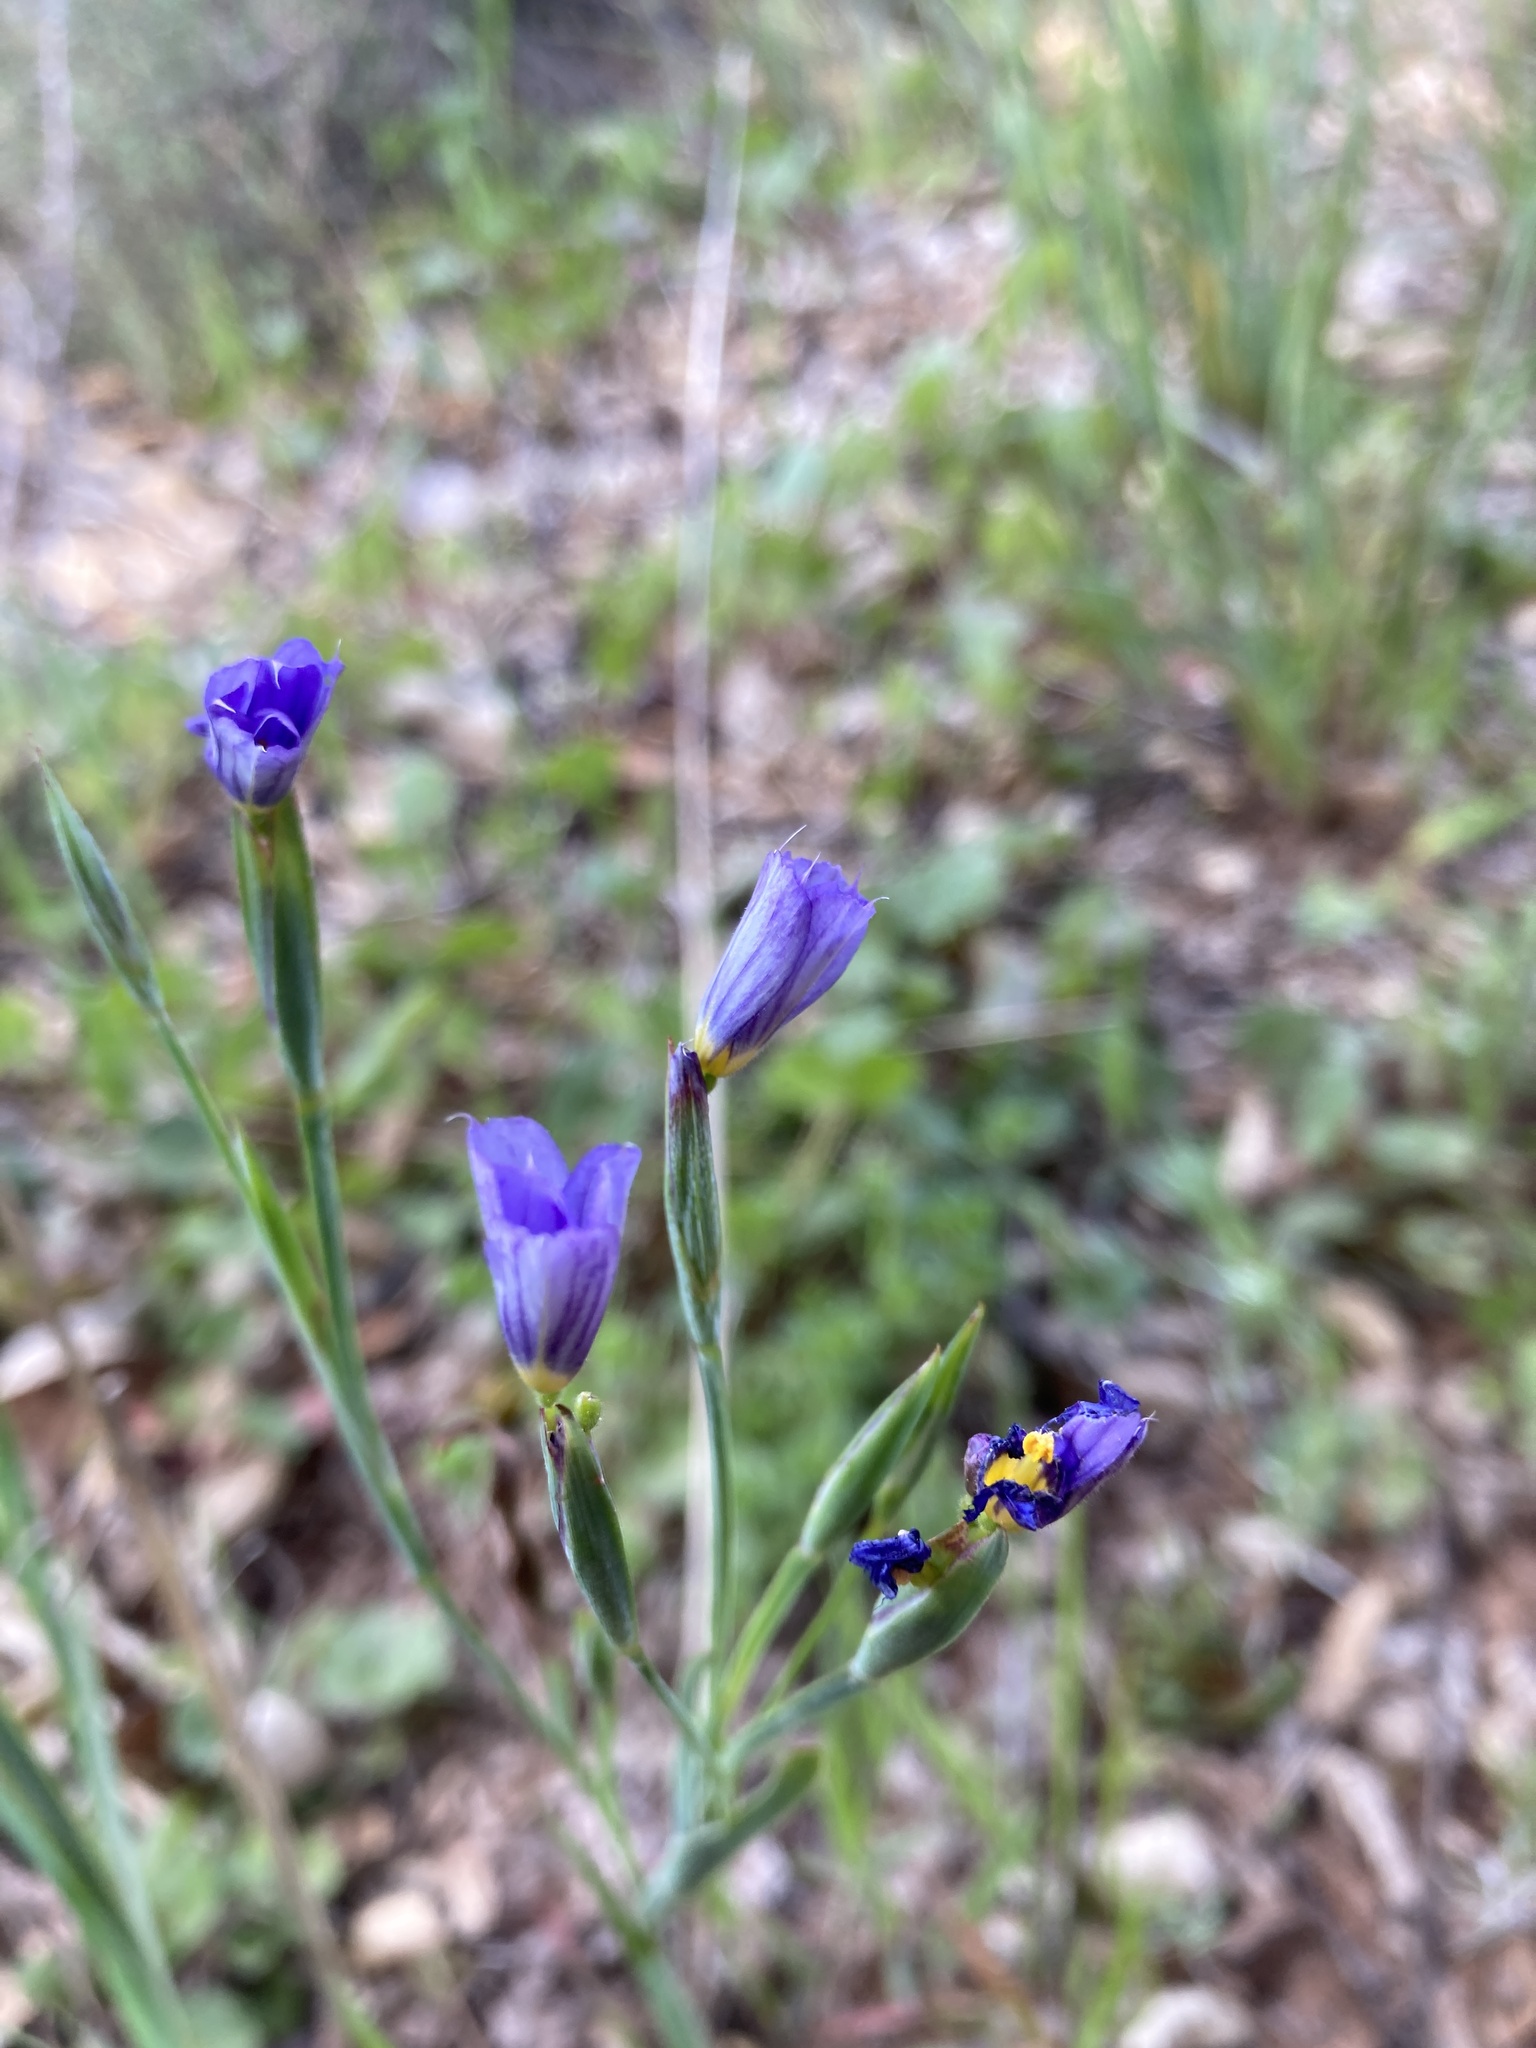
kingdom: Plantae
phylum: Tracheophyta
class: Liliopsida
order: Asparagales
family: Iridaceae
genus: Sisyrinchium
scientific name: Sisyrinchium bellum
